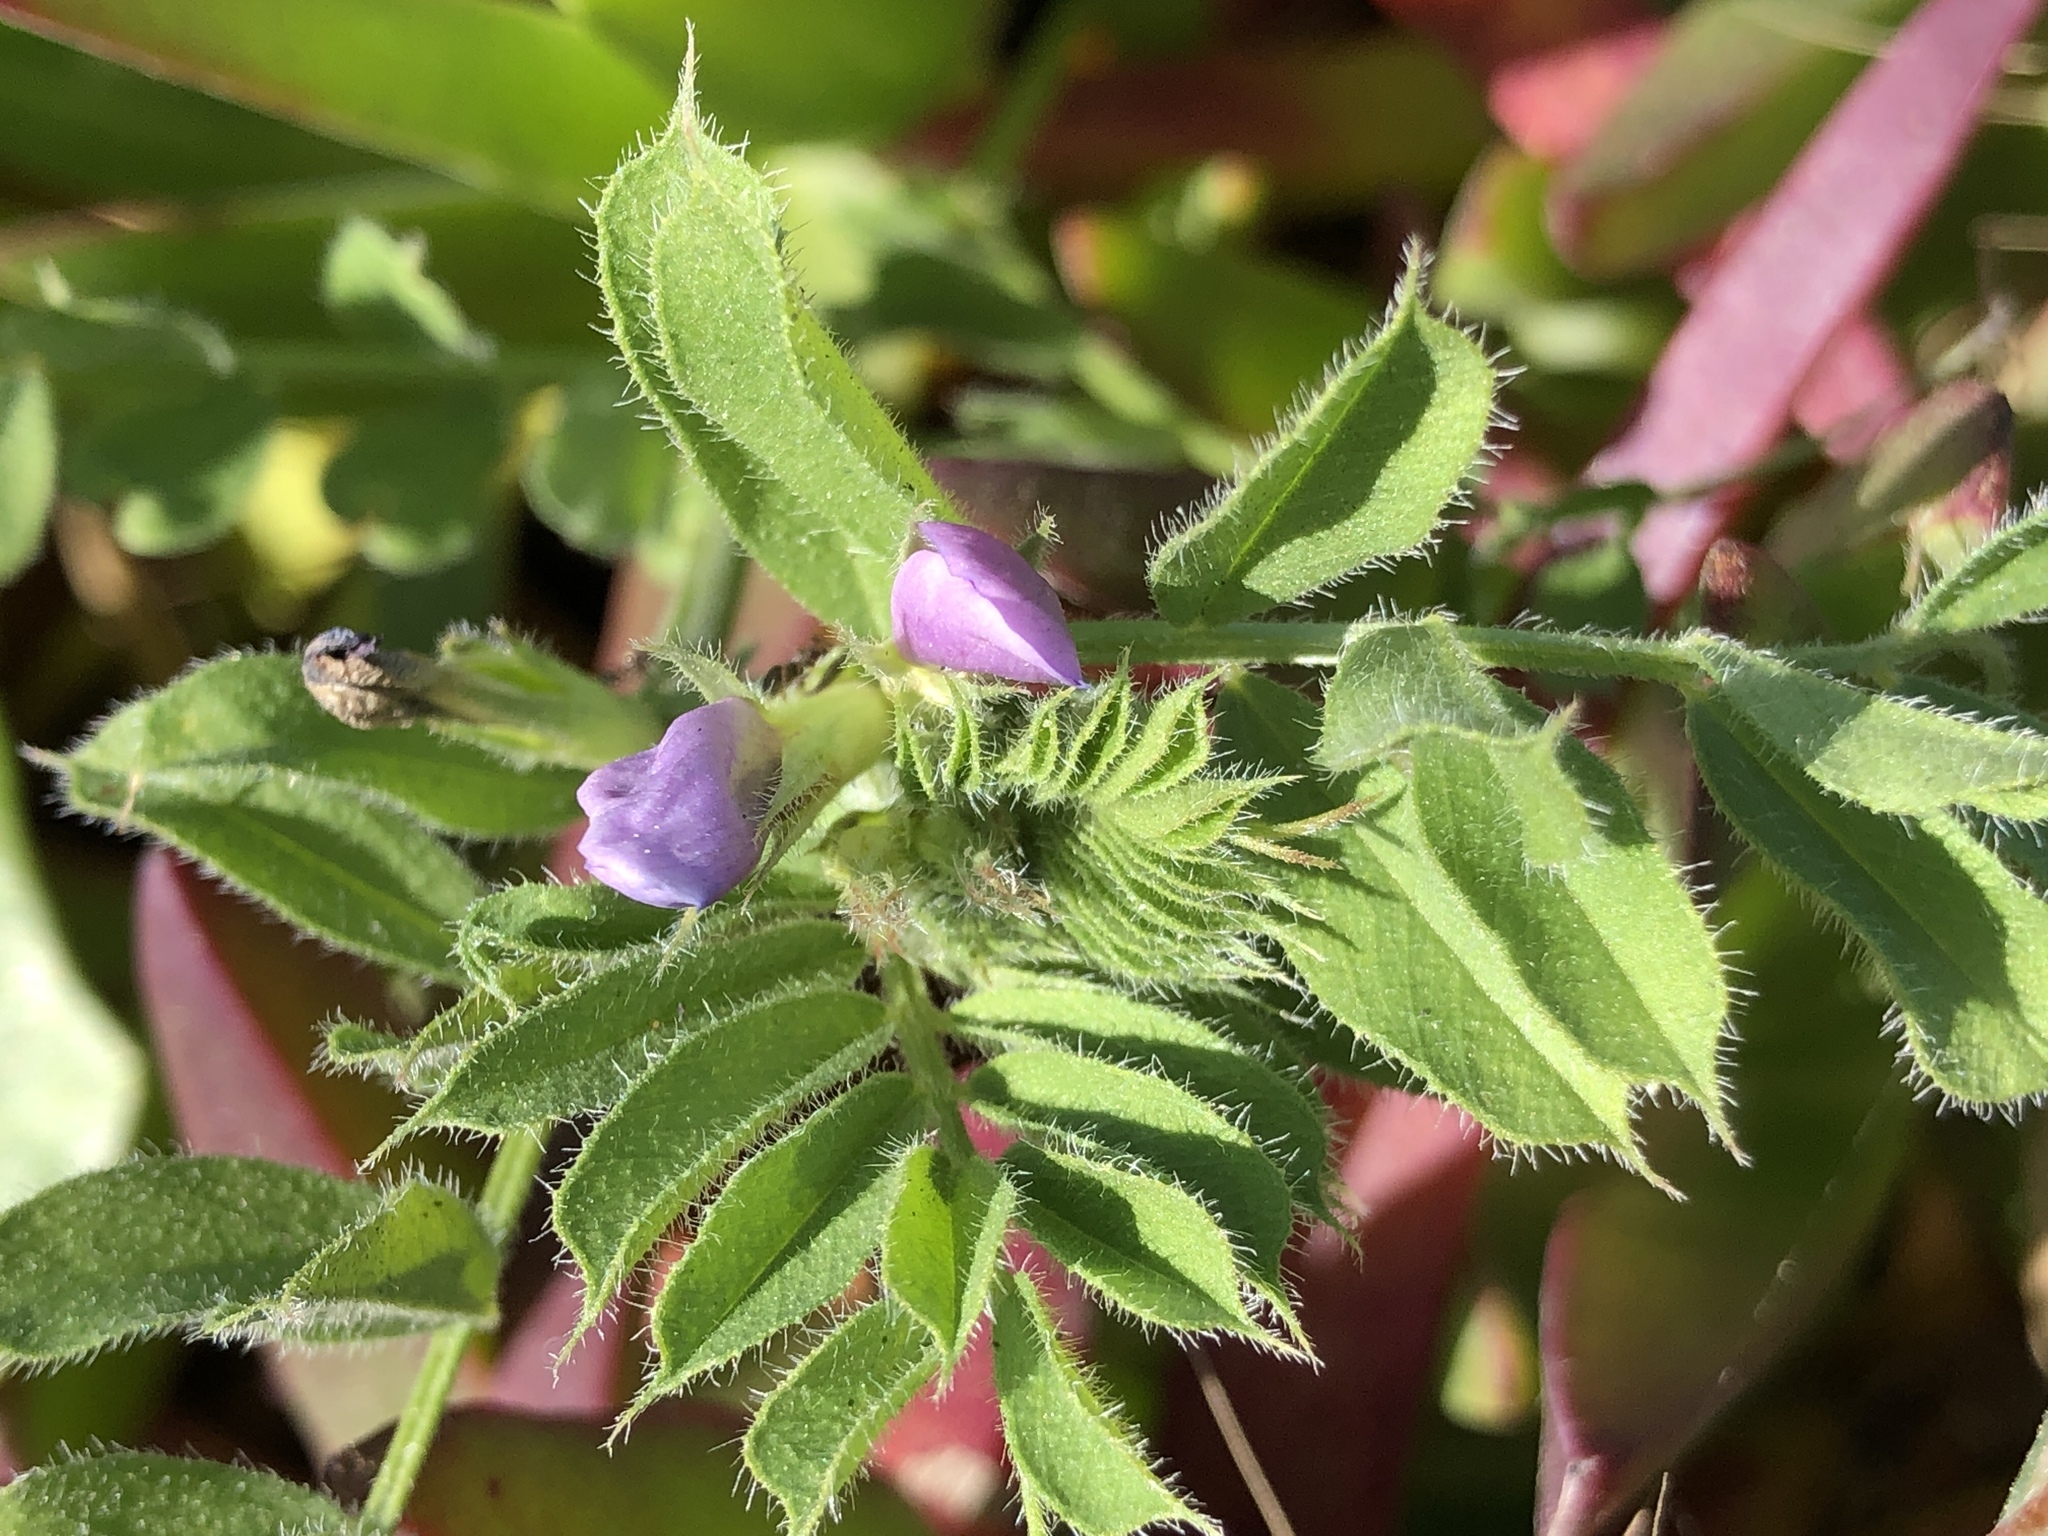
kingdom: Plantae
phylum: Tracheophyta
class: Magnoliopsida
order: Fabales
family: Fabaceae
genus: Vicia
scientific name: Vicia sativa
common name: Garden vetch
